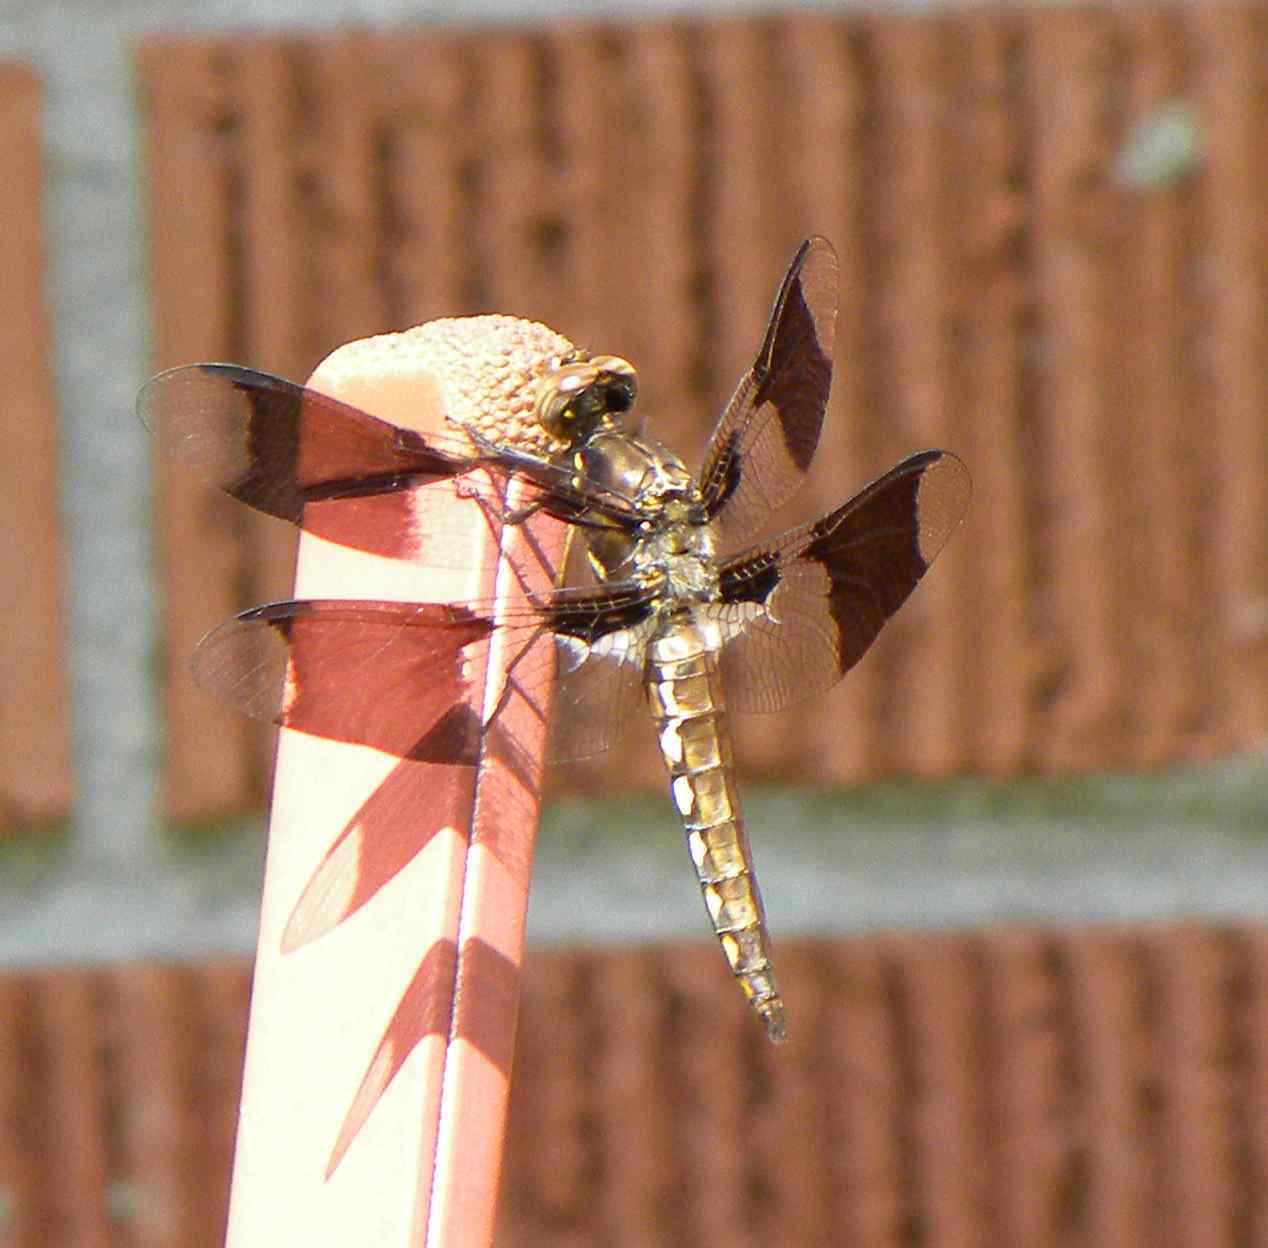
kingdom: Animalia
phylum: Arthropoda
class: Insecta
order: Odonata
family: Libellulidae
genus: Plathemis
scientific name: Plathemis lydia
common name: Common whitetail
